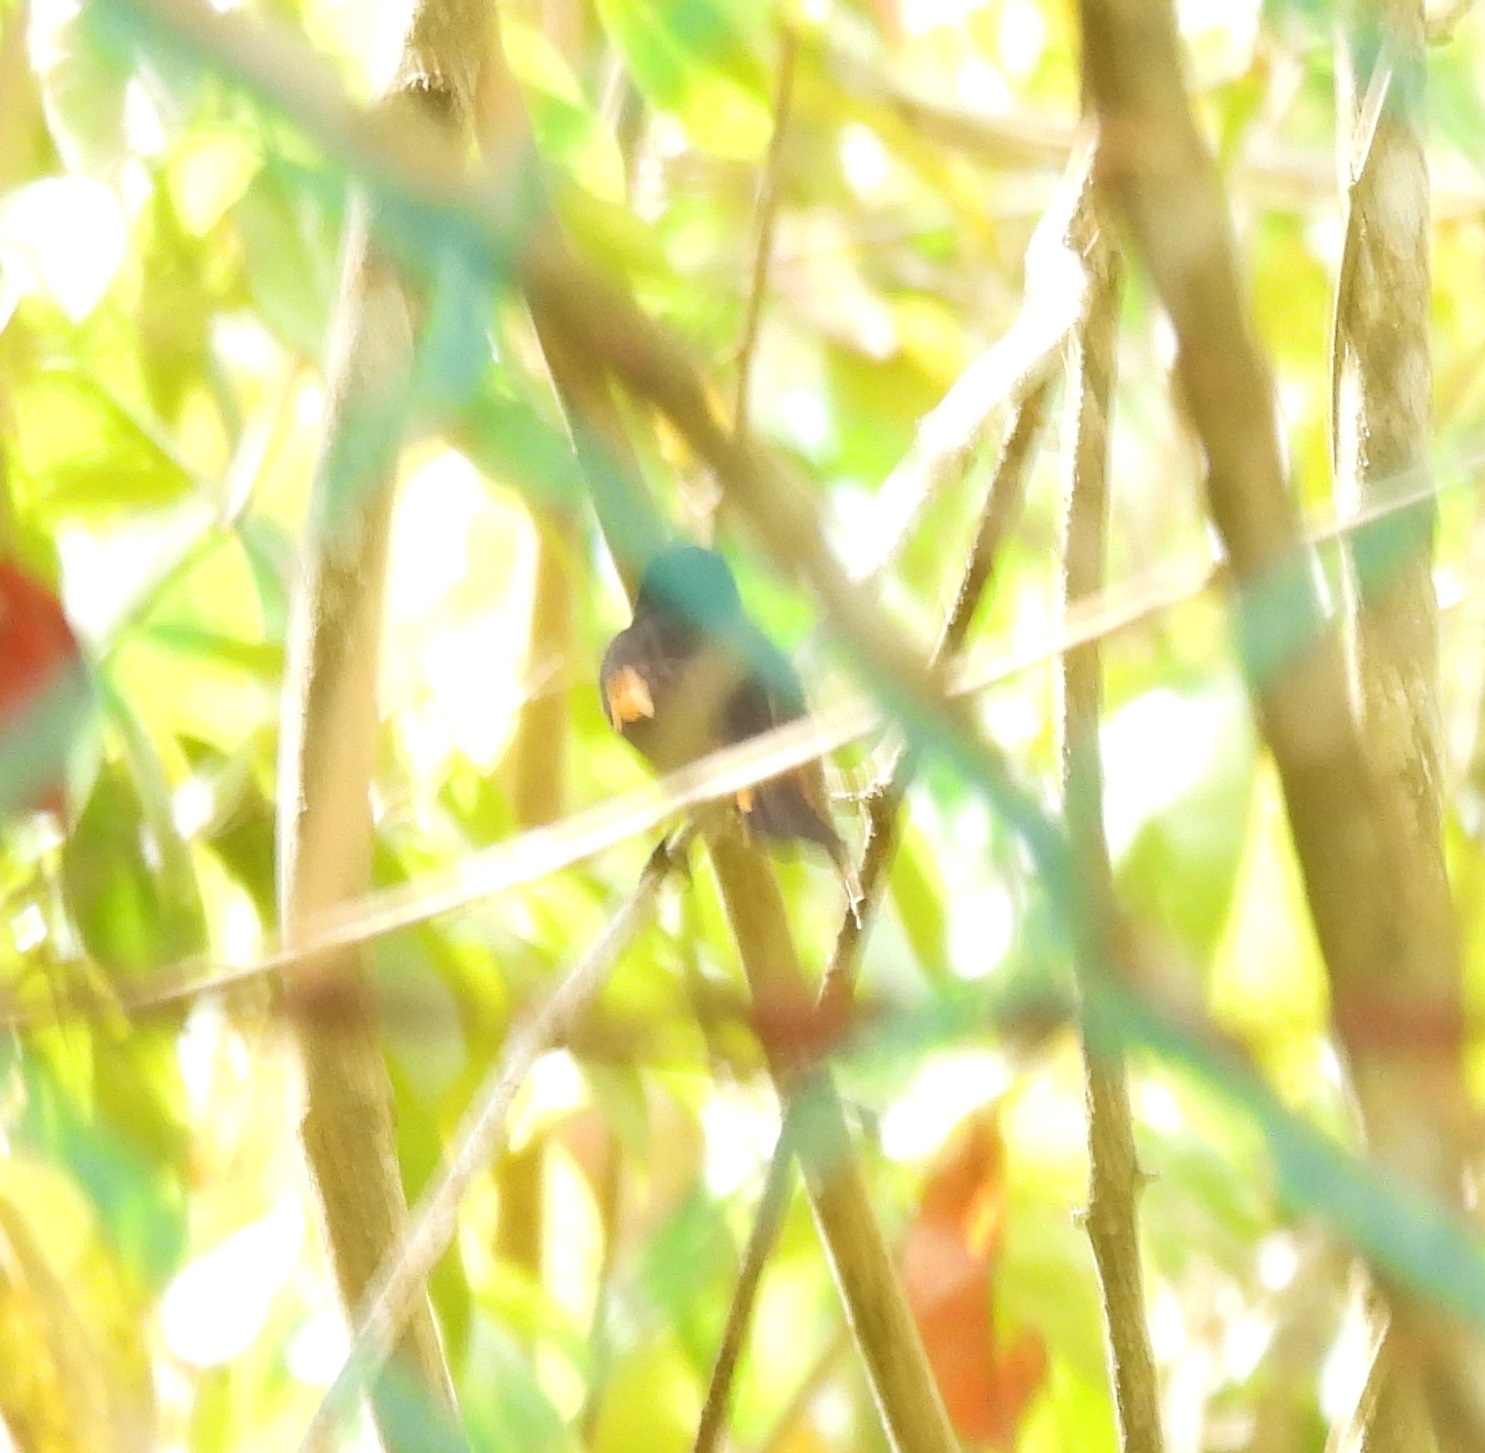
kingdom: Animalia
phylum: Chordata
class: Aves
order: Passeriformes
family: Parulidae
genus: Setophaga
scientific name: Setophaga ruticilla
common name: American redstart
